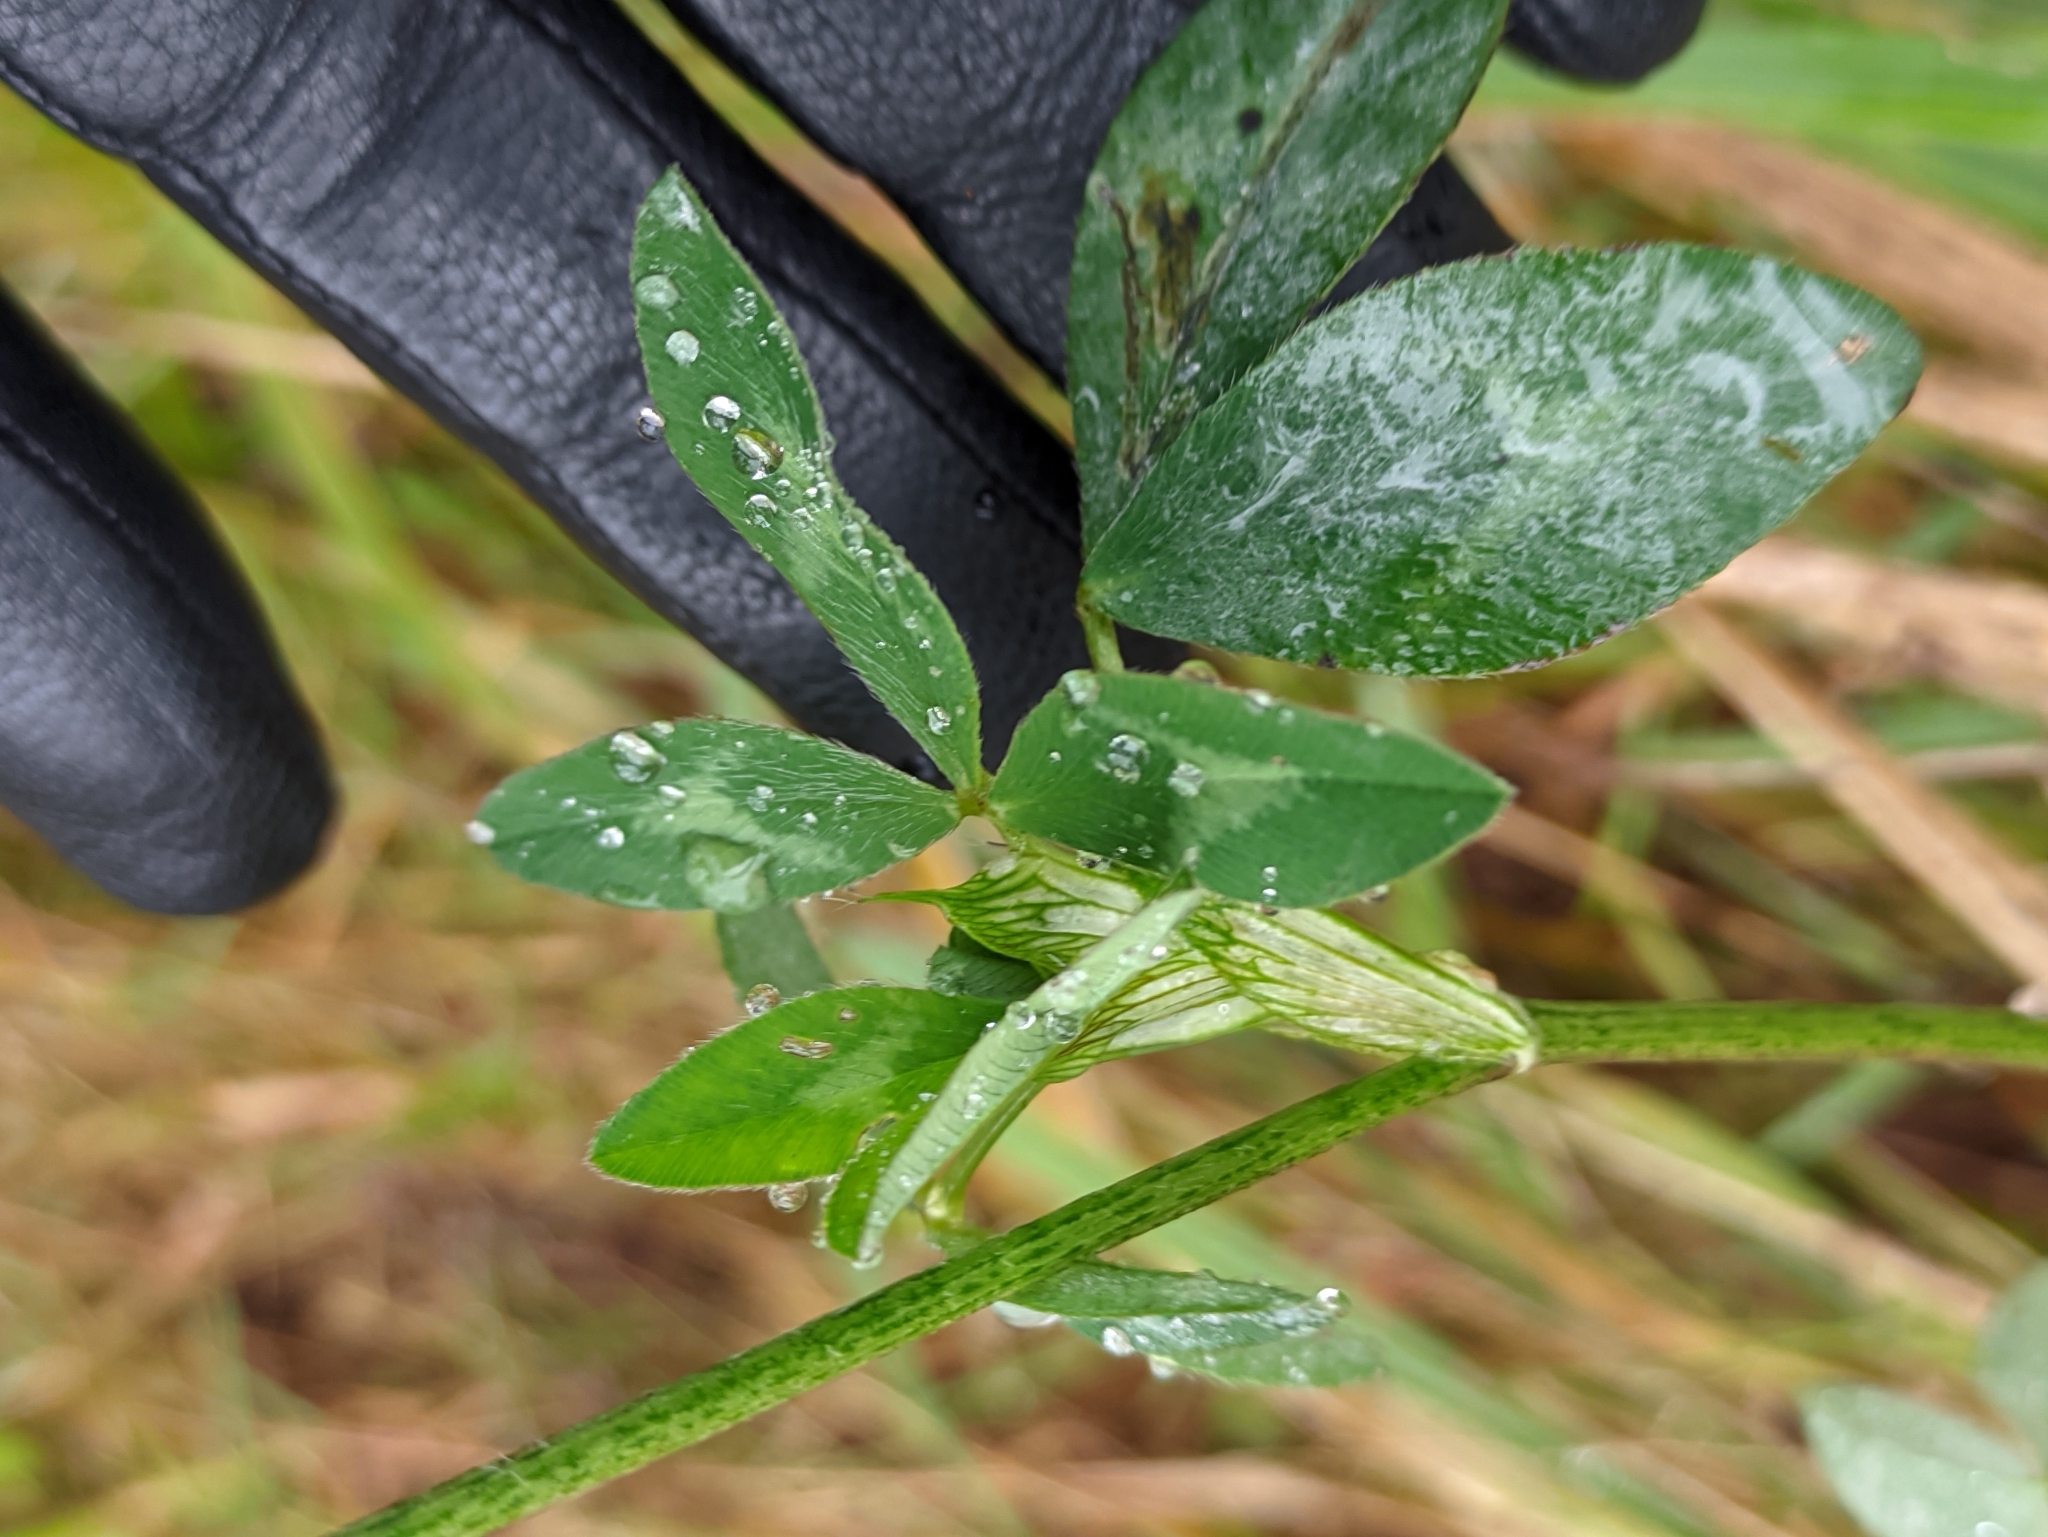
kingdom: Plantae
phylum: Tracheophyta
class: Magnoliopsida
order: Fabales
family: Fabaceae
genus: Trifolium
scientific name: Trifolium pratense
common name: Red clover
